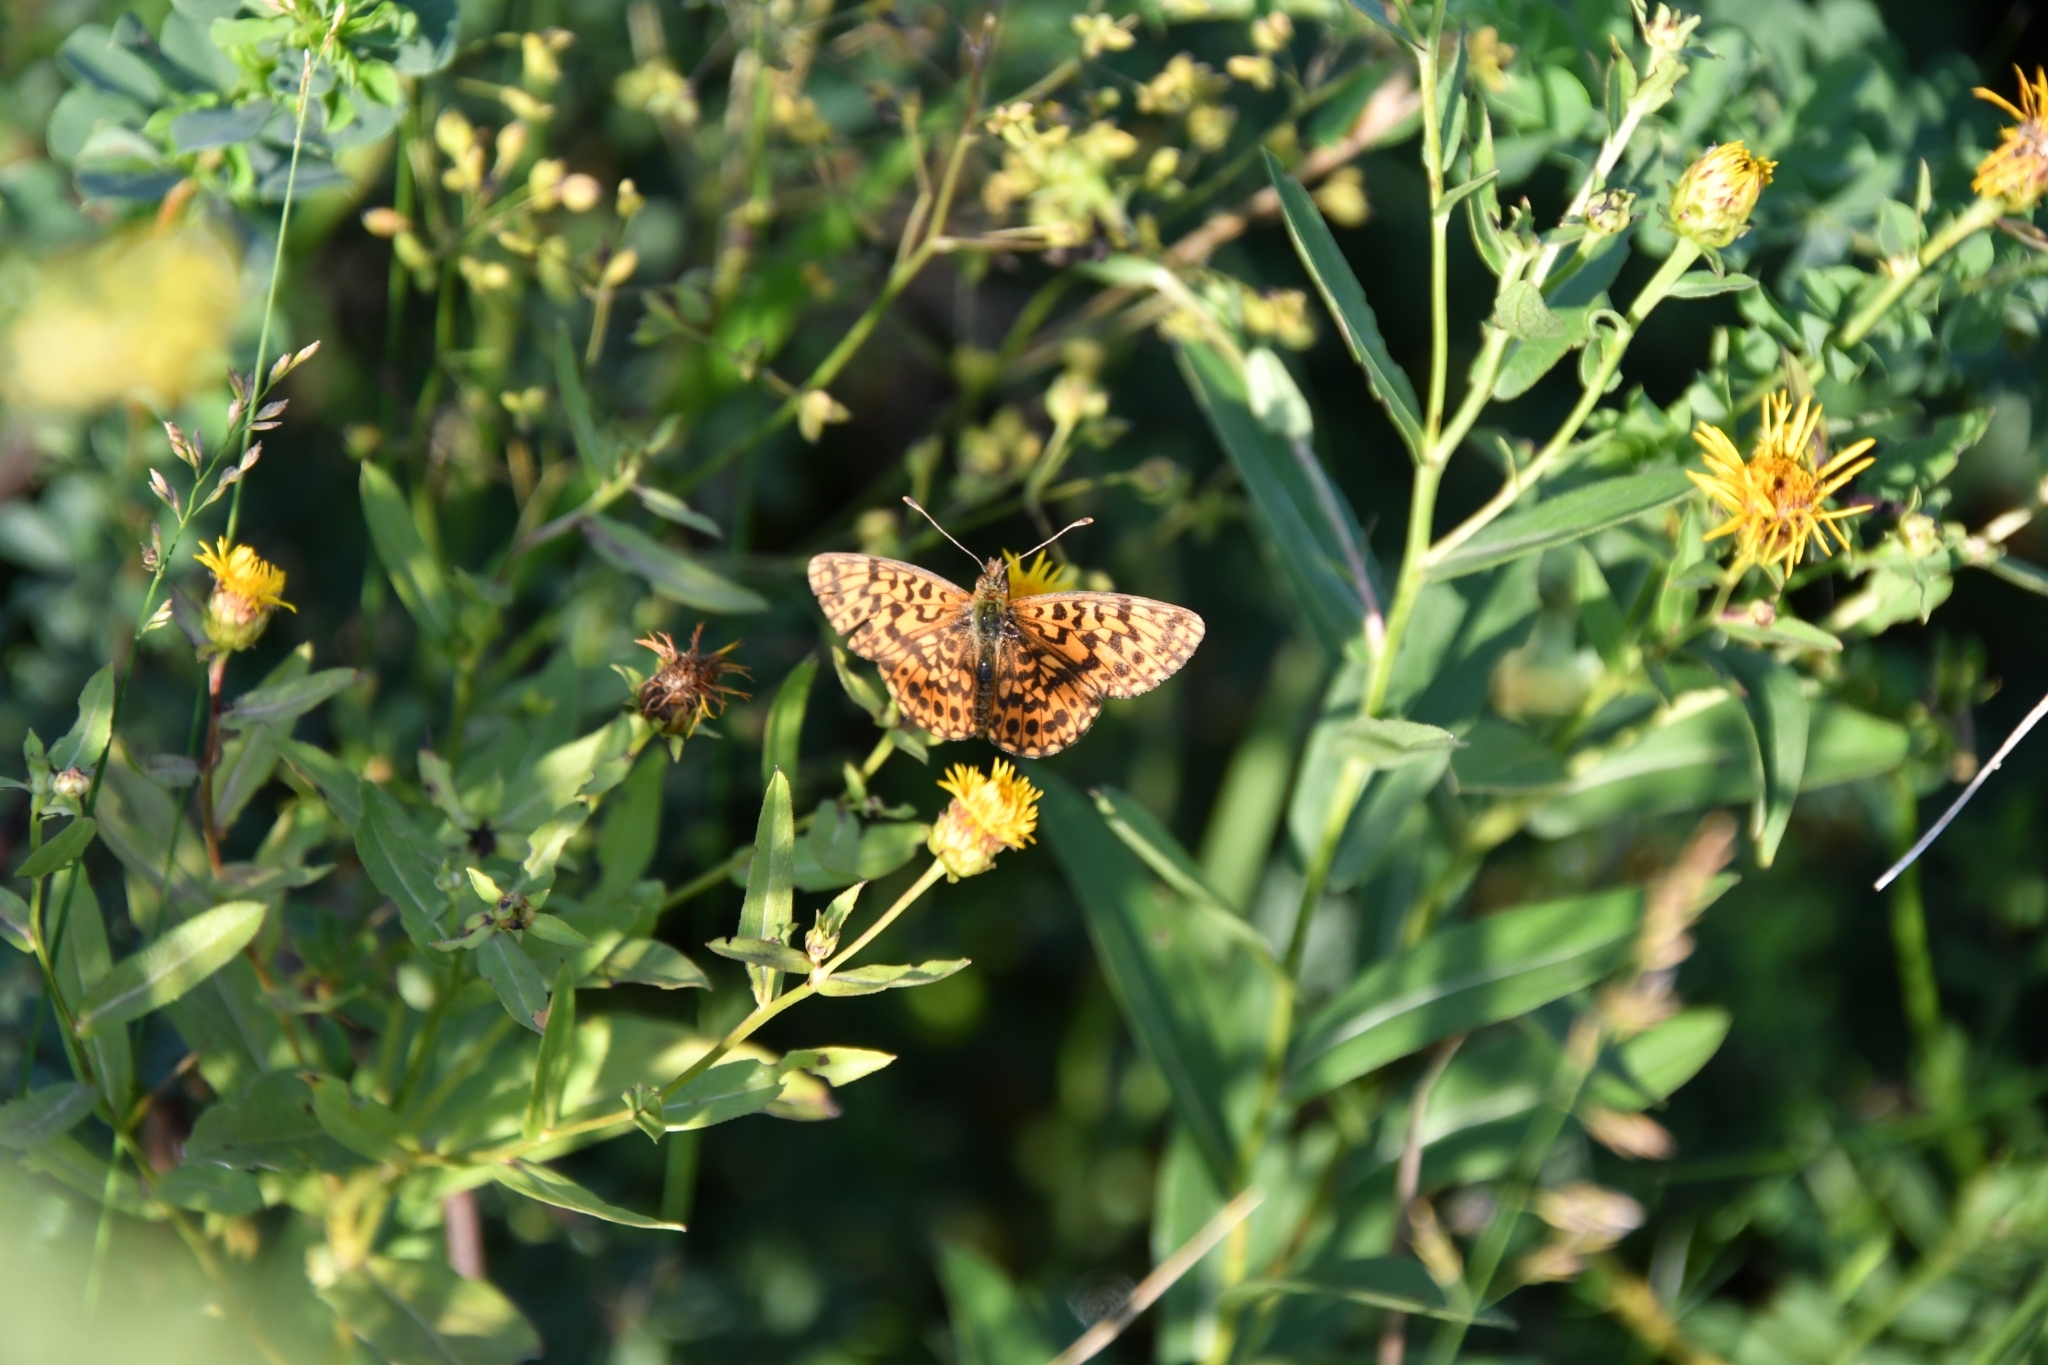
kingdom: Animalia
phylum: Arthropoda
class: Insecta
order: Lepidoptera
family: Nymphalidae
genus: Boloria
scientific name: Boloria dia
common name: Weaver's fritillary
